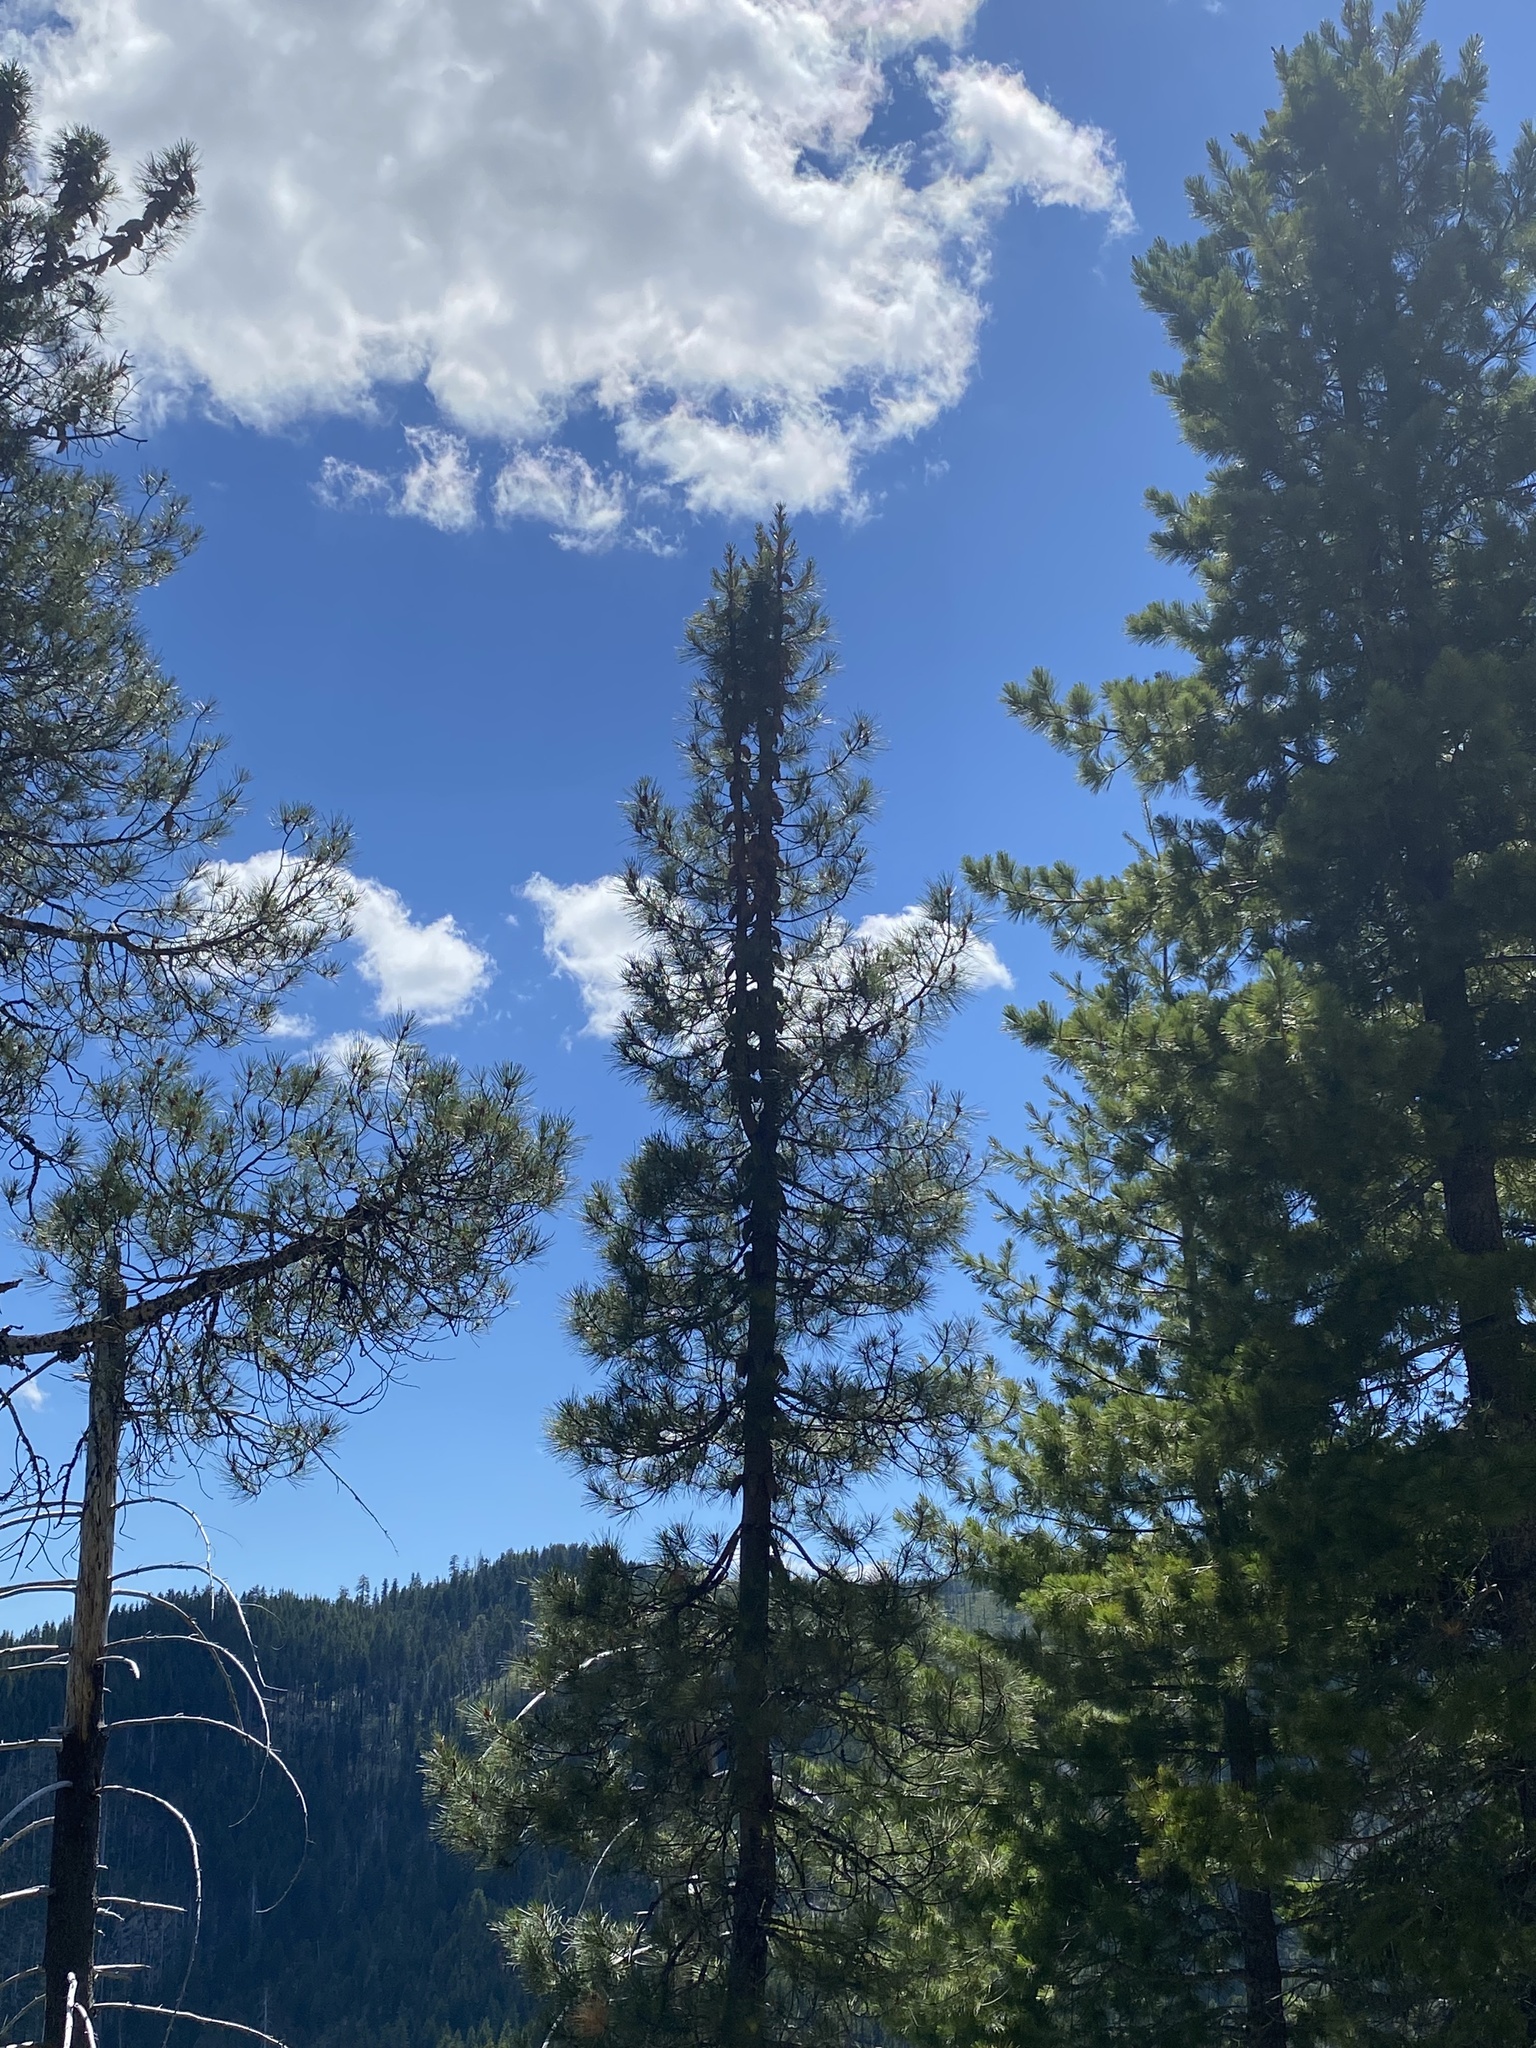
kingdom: Plantae
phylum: Tracheophyta
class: Pinopsida
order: Pinales
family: Pinaceae
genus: Pinus
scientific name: Pinus attenuata
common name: Knobcone pine
